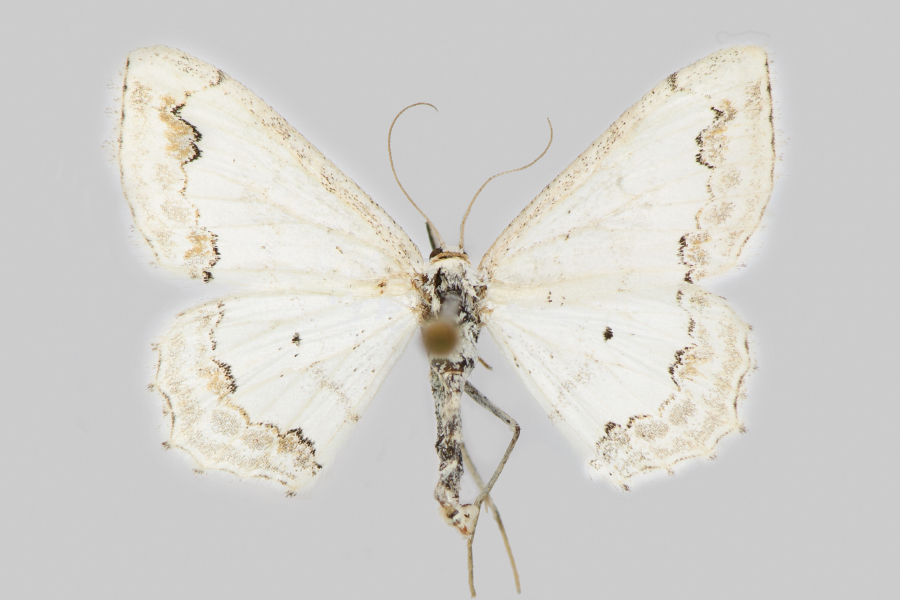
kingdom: Animalia
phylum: Arthropoda
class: Insecta
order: Lepidoptera
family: Geometridae
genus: Scopula
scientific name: Scopula ornata
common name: Lace border
